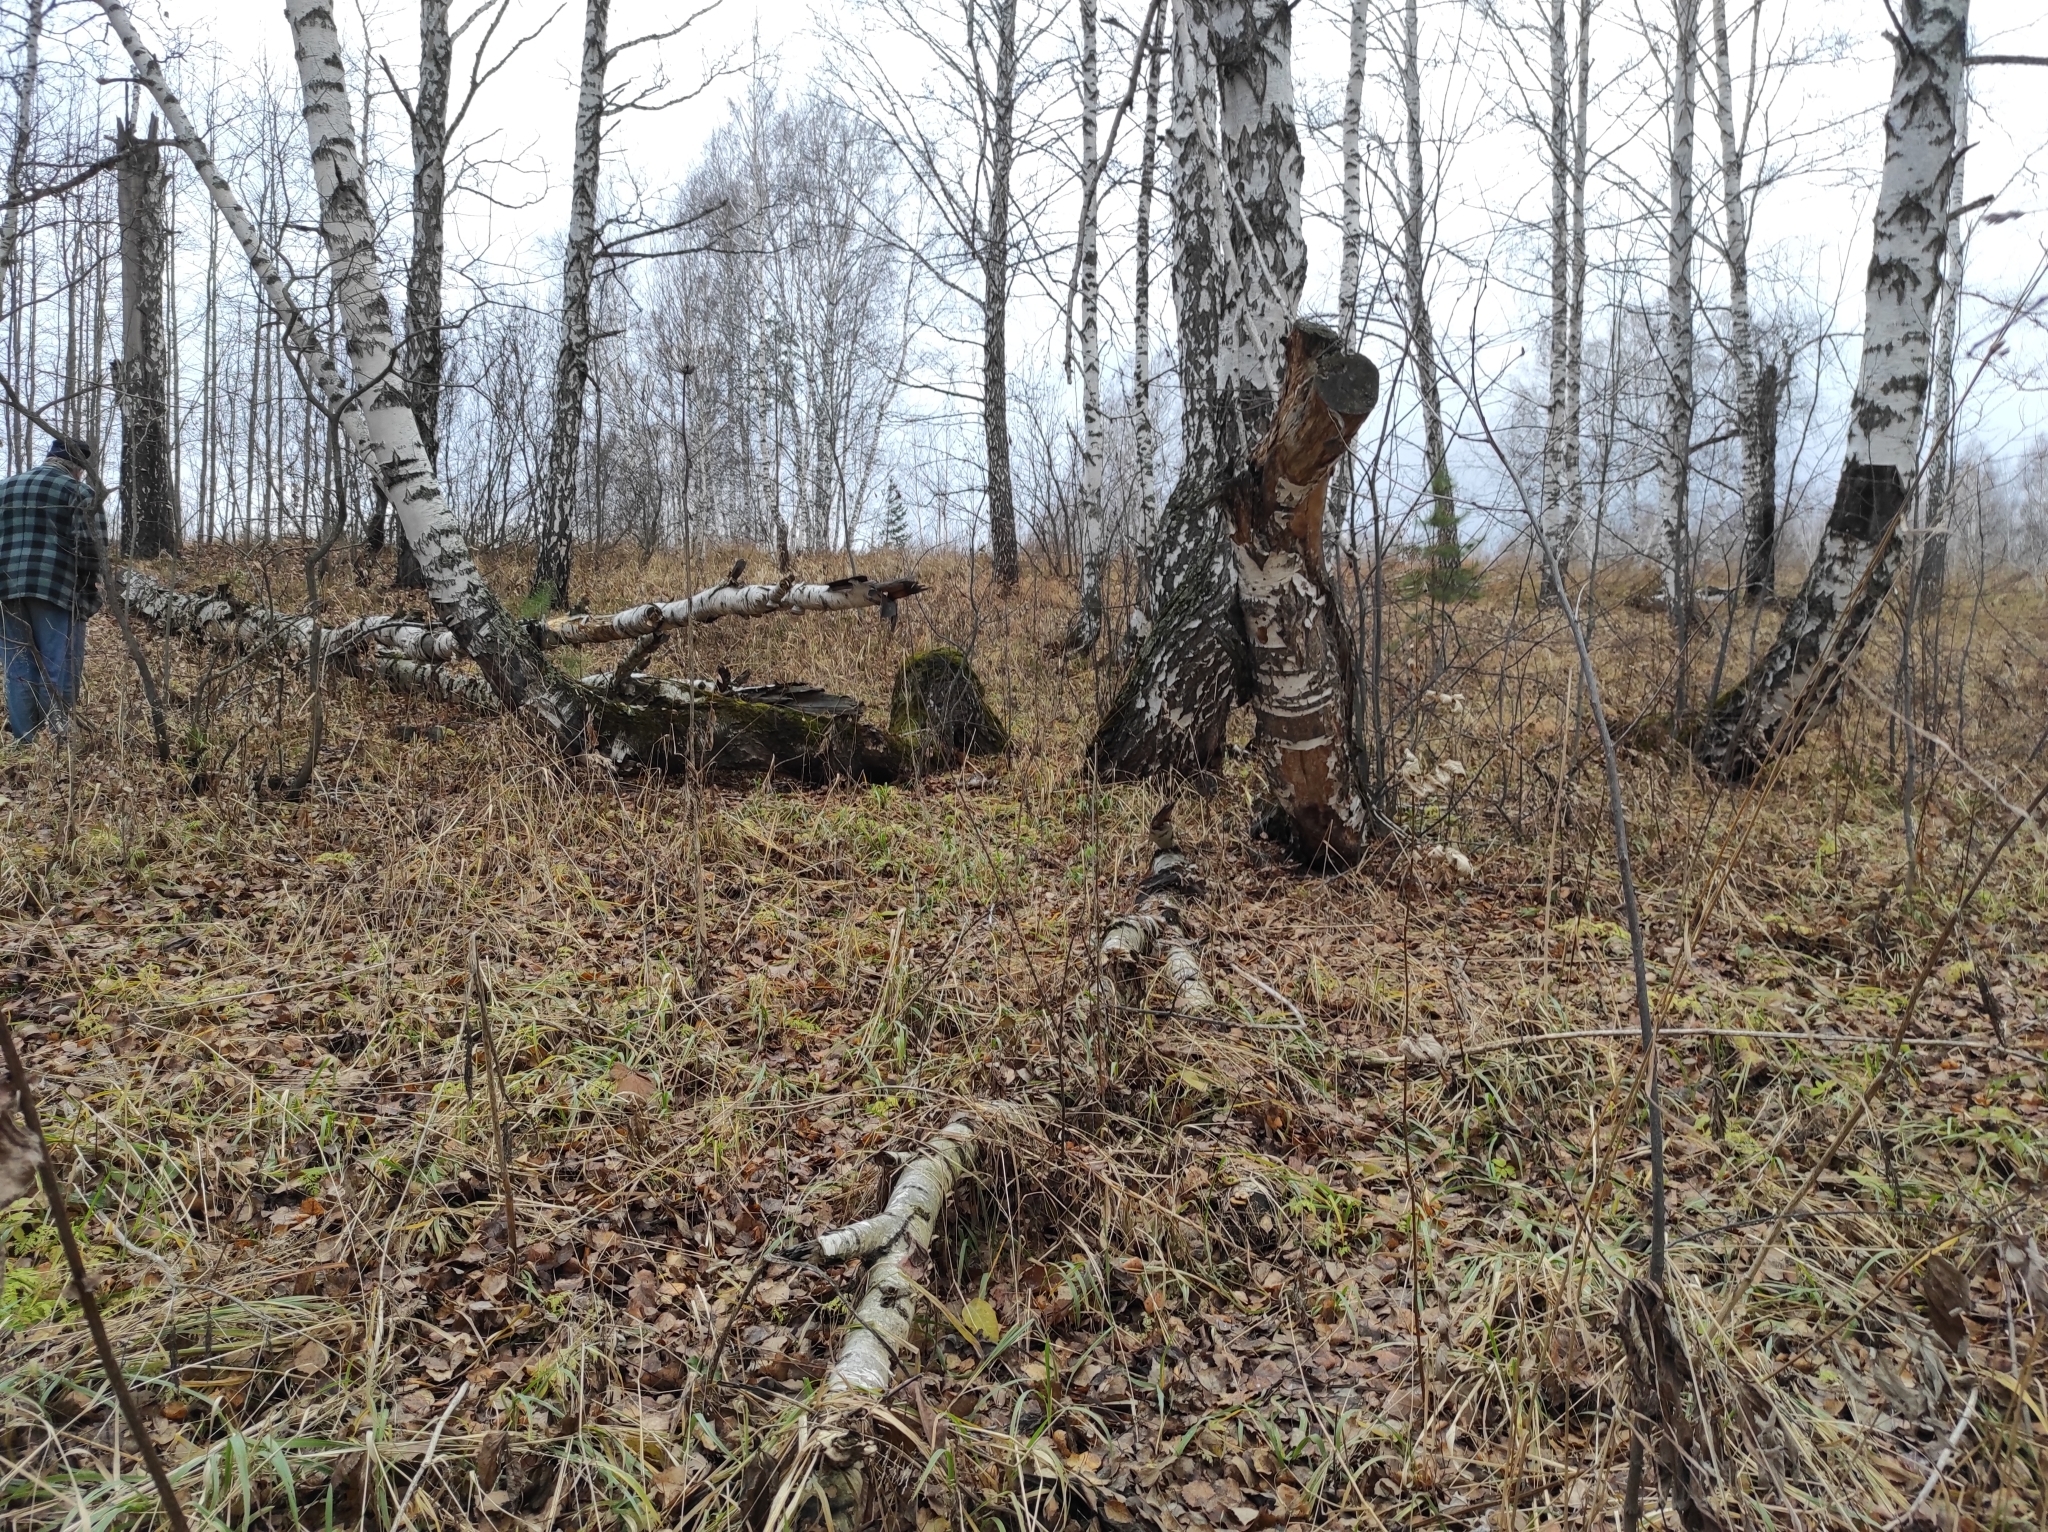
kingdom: Plantae
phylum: Tracheophyta
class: Magnoliopsida
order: Fagales
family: Betulaceae
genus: Betula
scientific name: Betula pendula
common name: Silver birch
